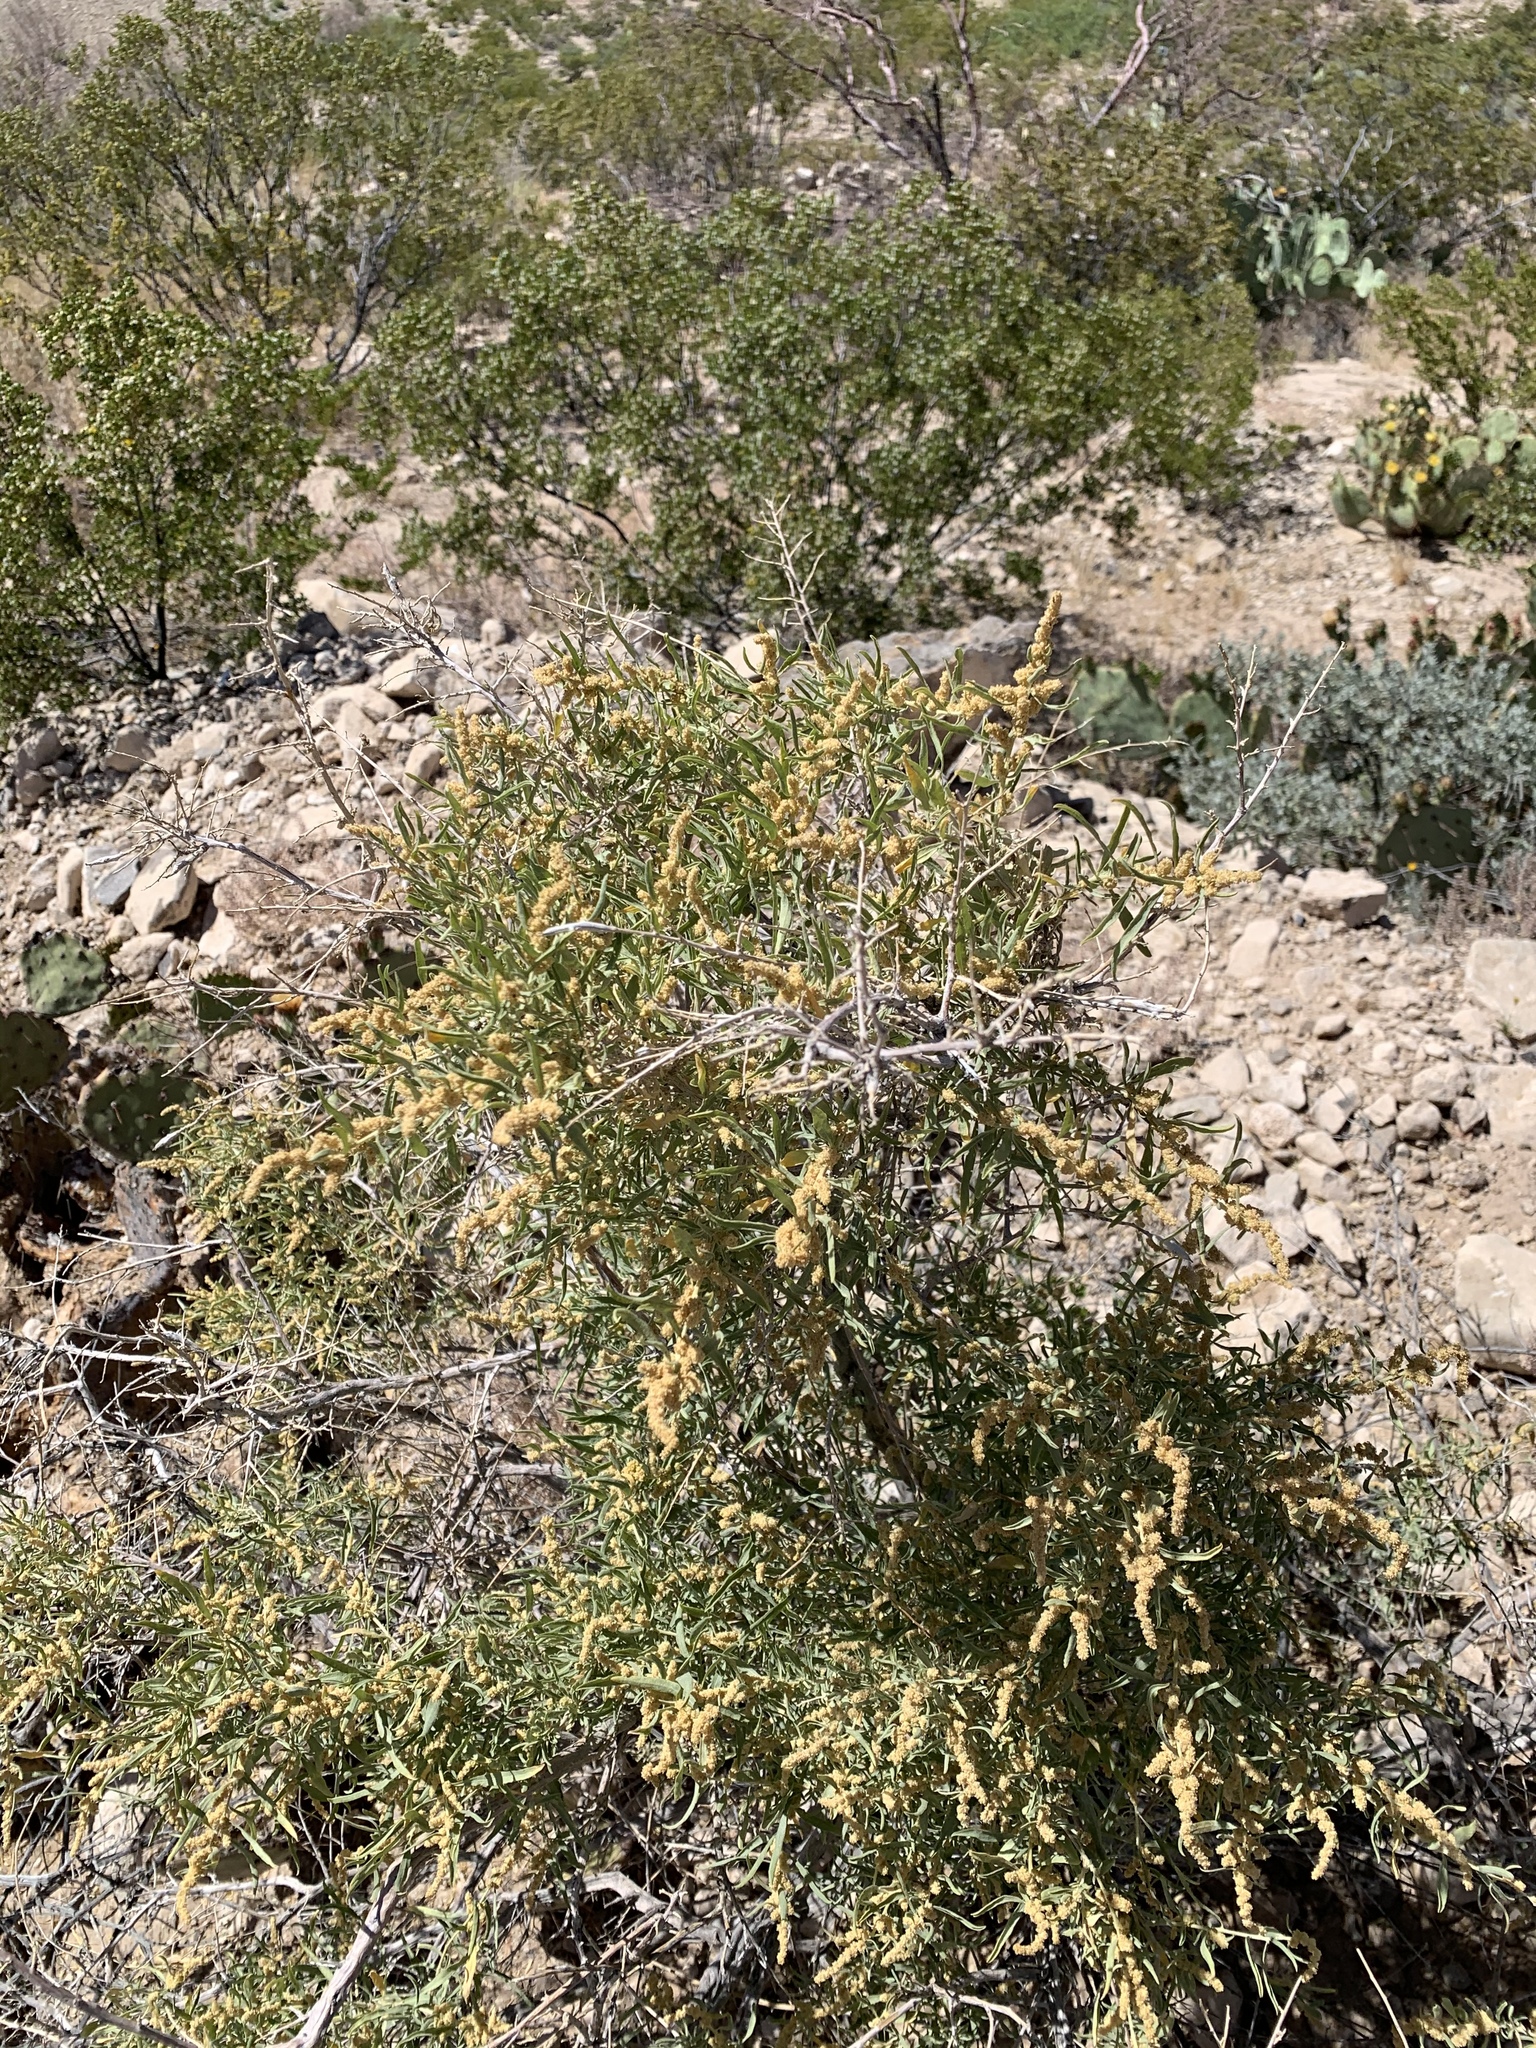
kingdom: Plantae
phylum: Tracheophyta
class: Magnoliopsida
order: Caryophyllales
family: Amaranthaceae
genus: Atriplex
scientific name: Atriplex canescens
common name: Four-wing saltbush
